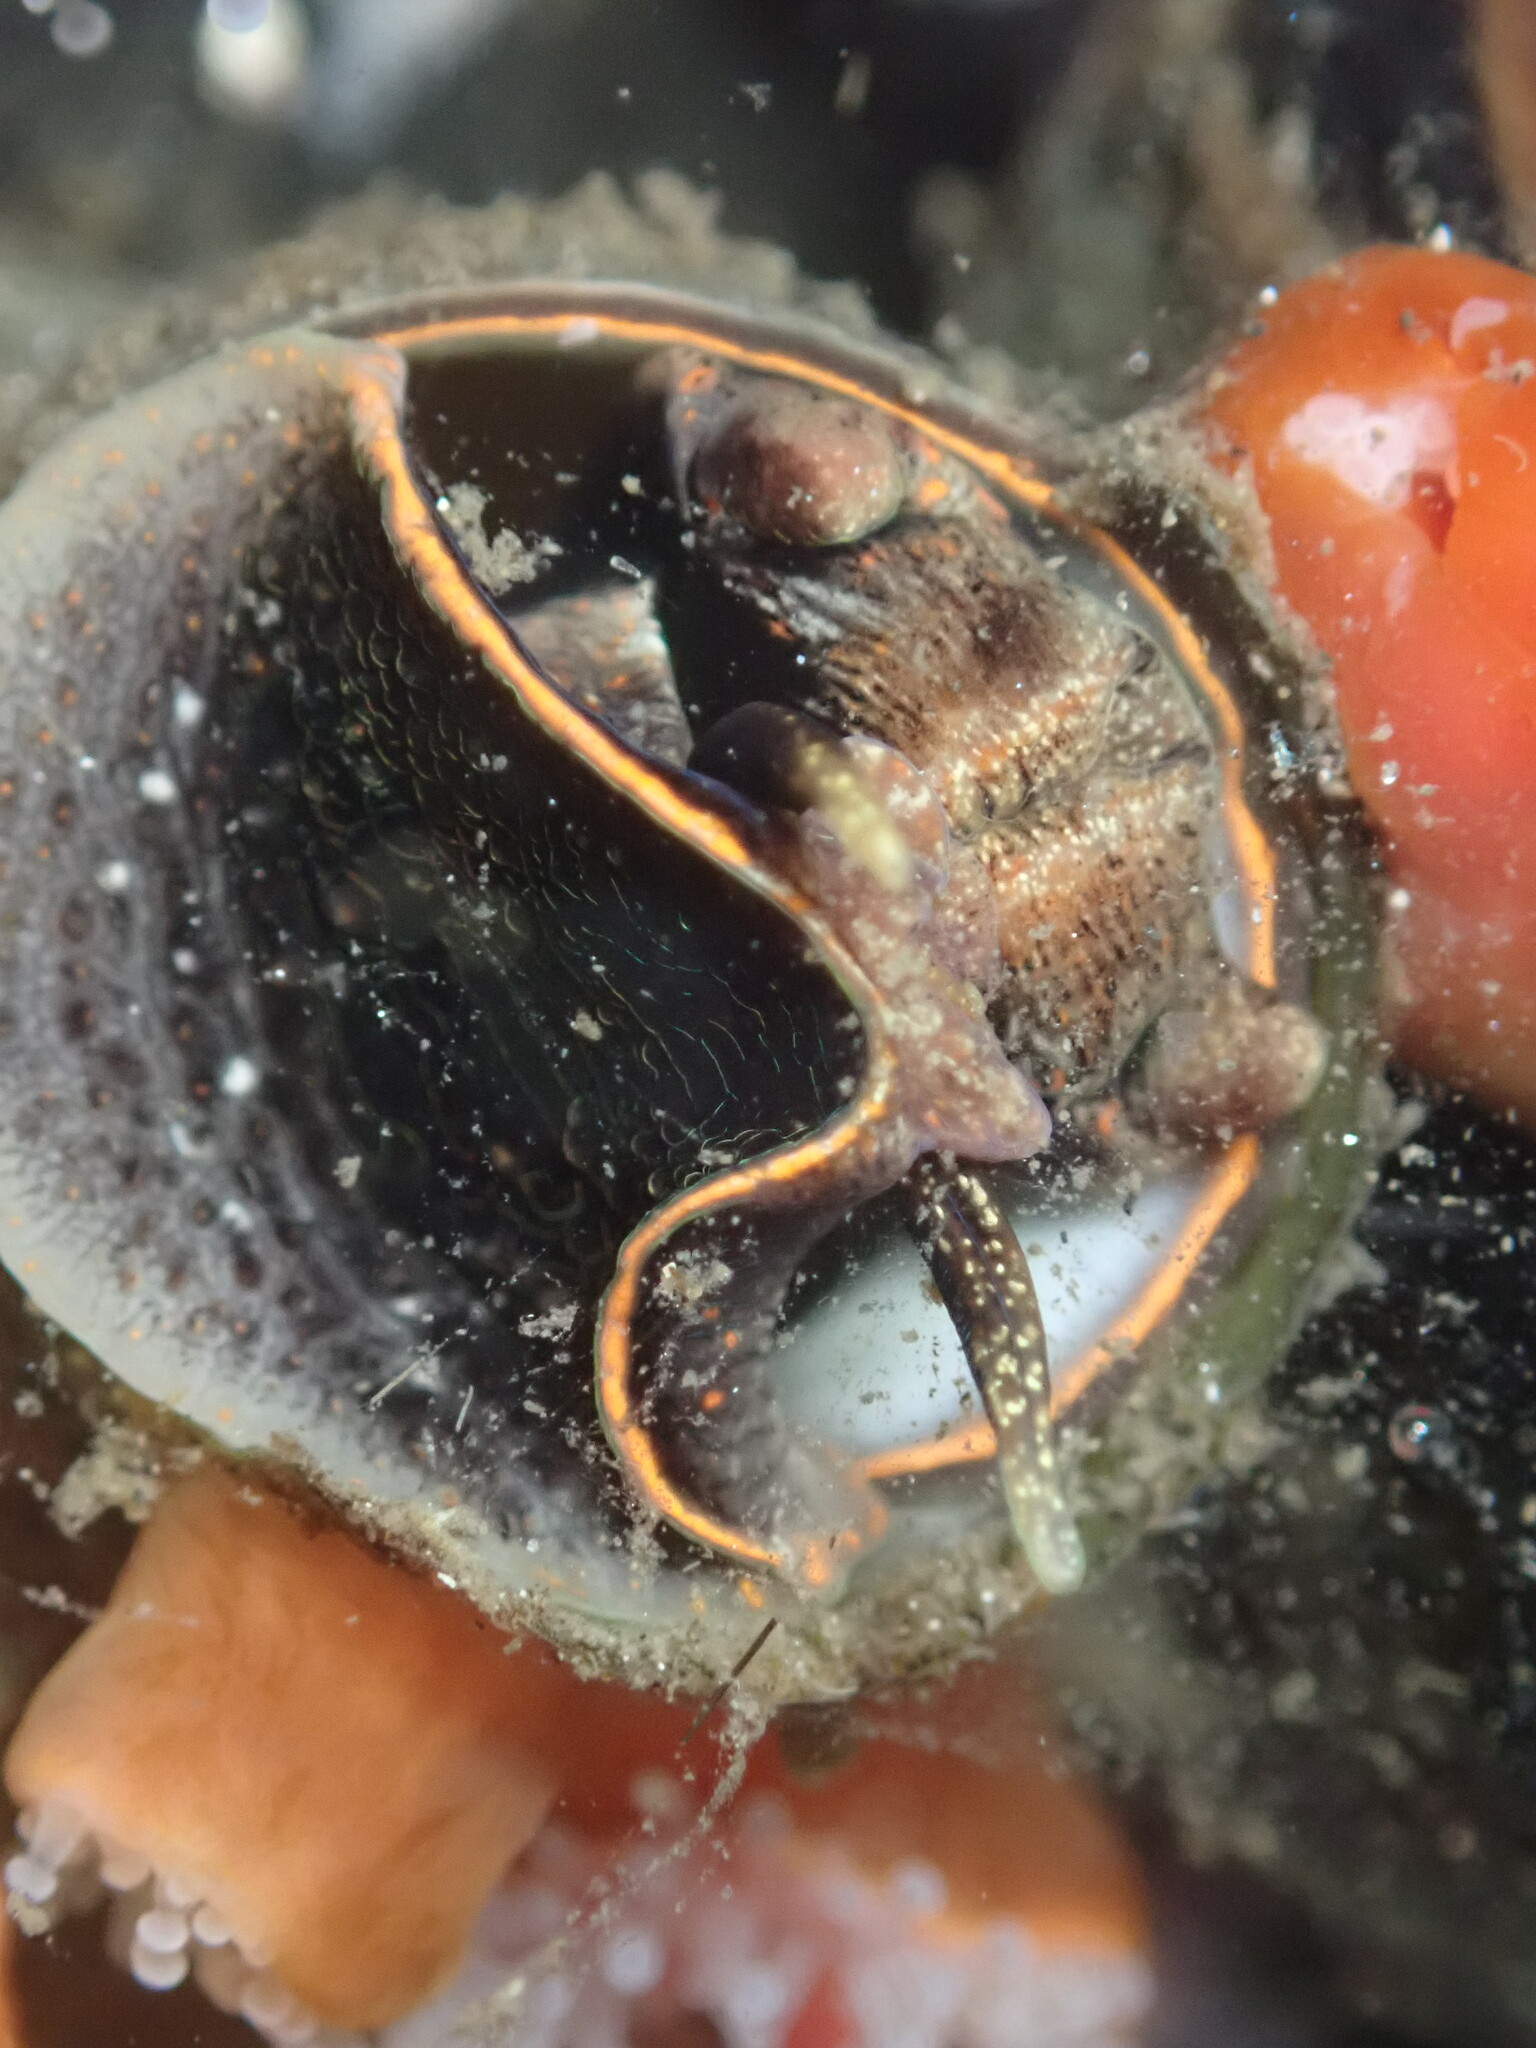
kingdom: Animalia
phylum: Mollusca
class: Gastropoda
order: Littorinimorpha
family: Vermetidae
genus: Thylacodes
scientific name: Thylacodes squamigerus
